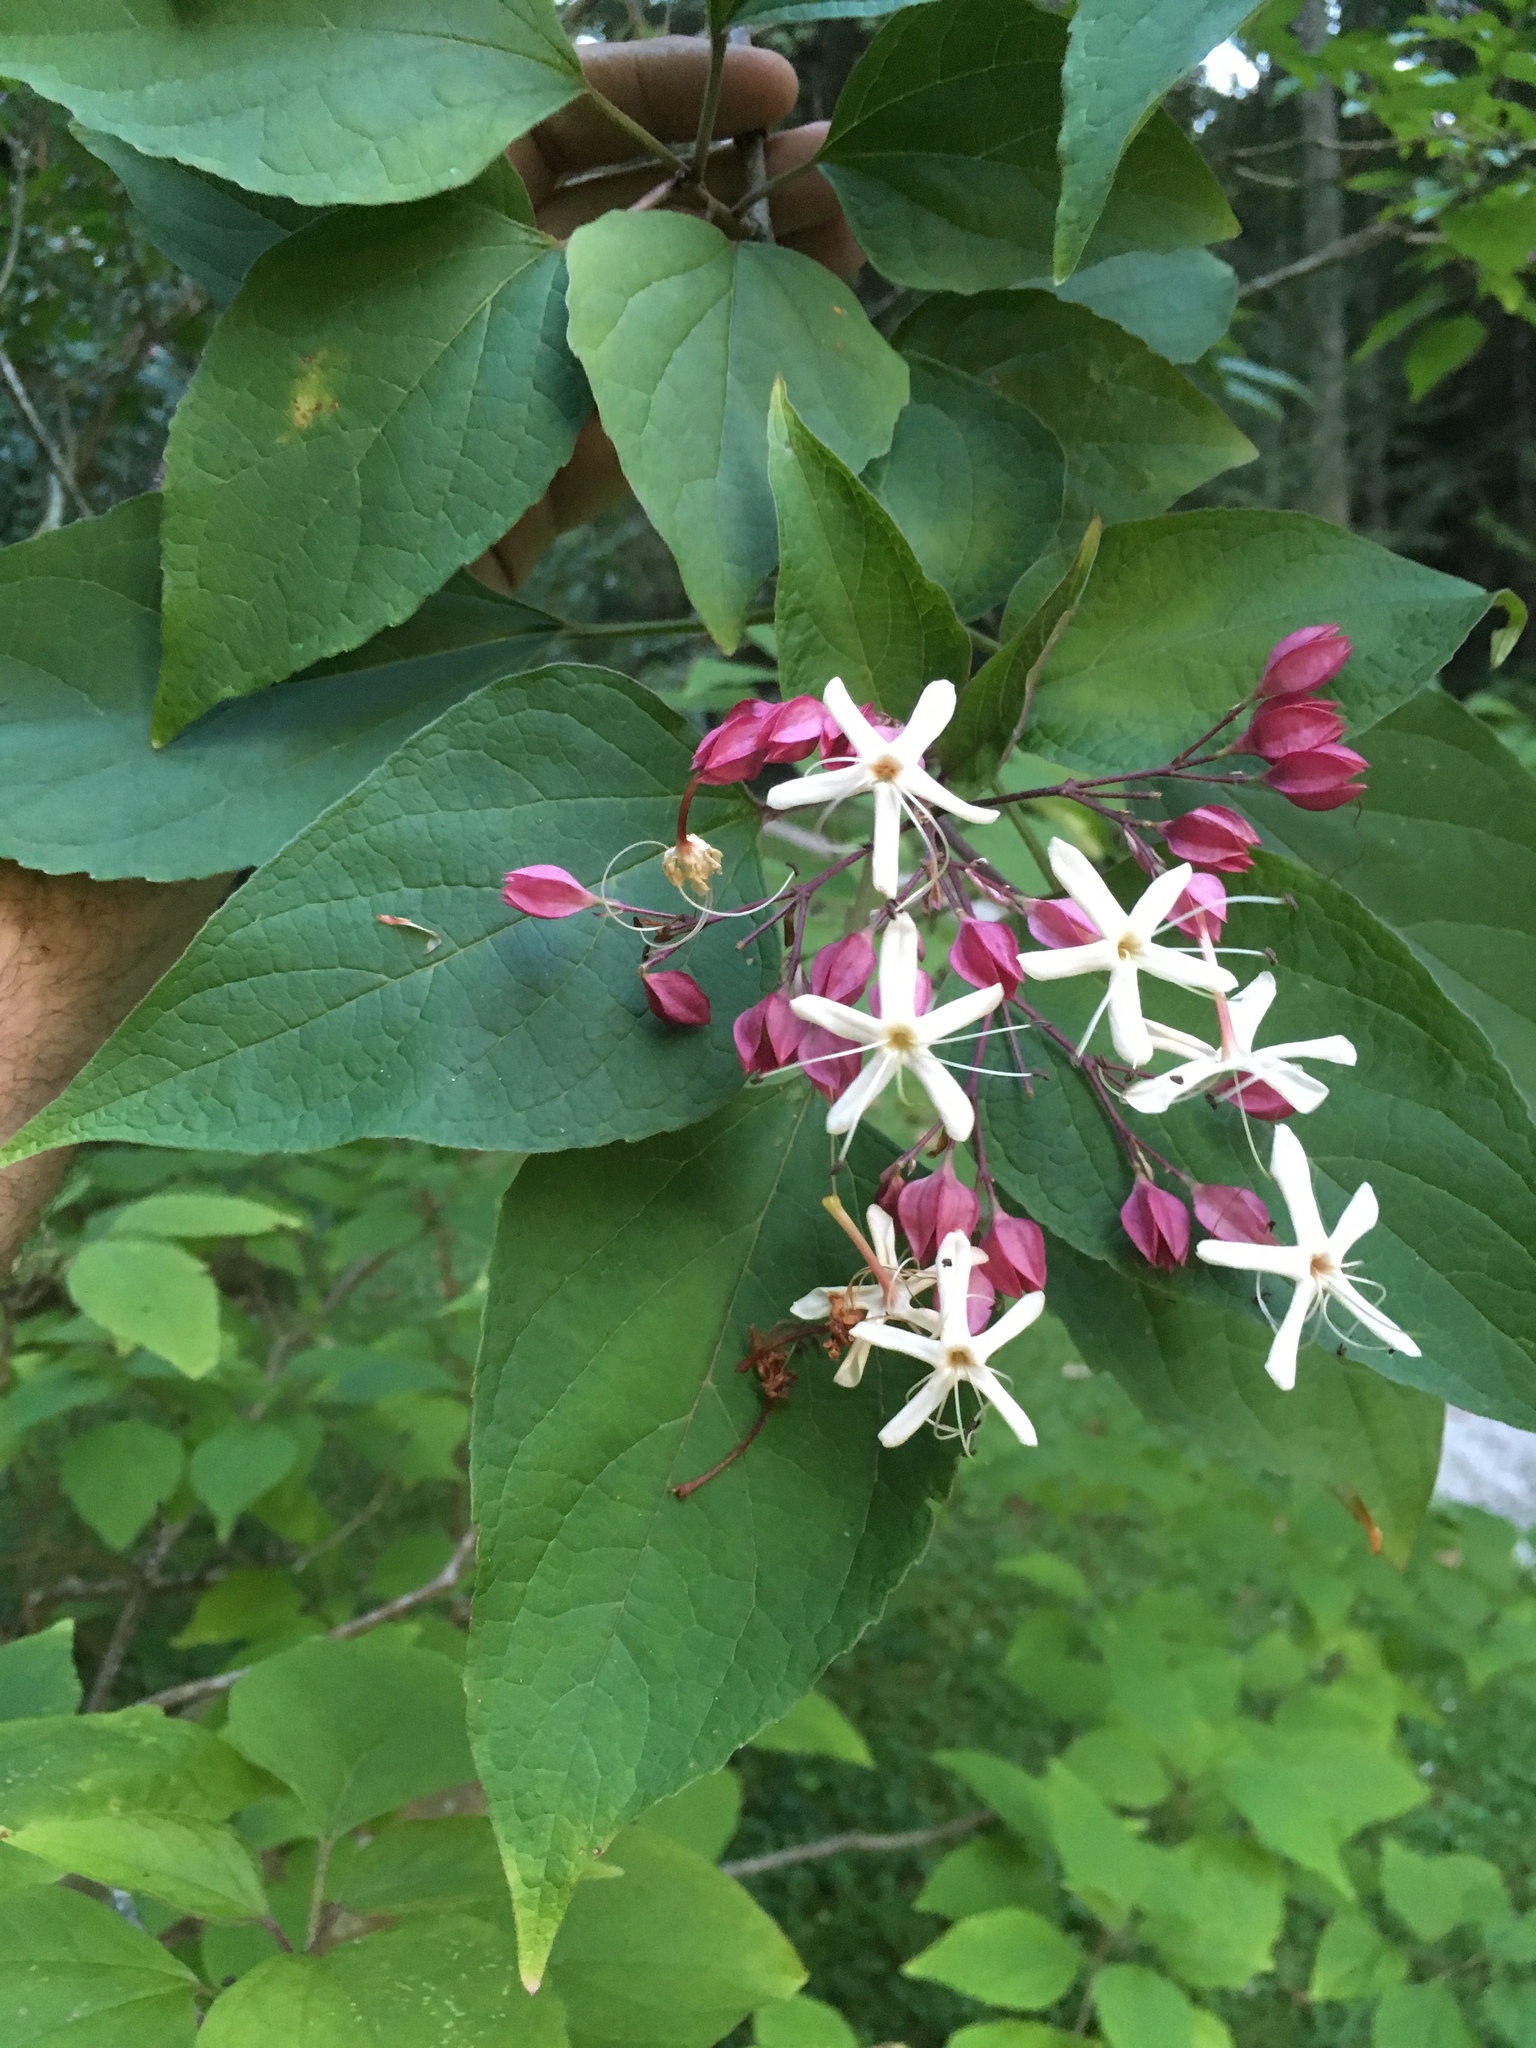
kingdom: Plantae
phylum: Tracheophyta
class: Magnoliopsida
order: Lamiales
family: Lamiaceae
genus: Clerodendrum
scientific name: Clerodendrum trichotomum
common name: Harlequin glorybower
